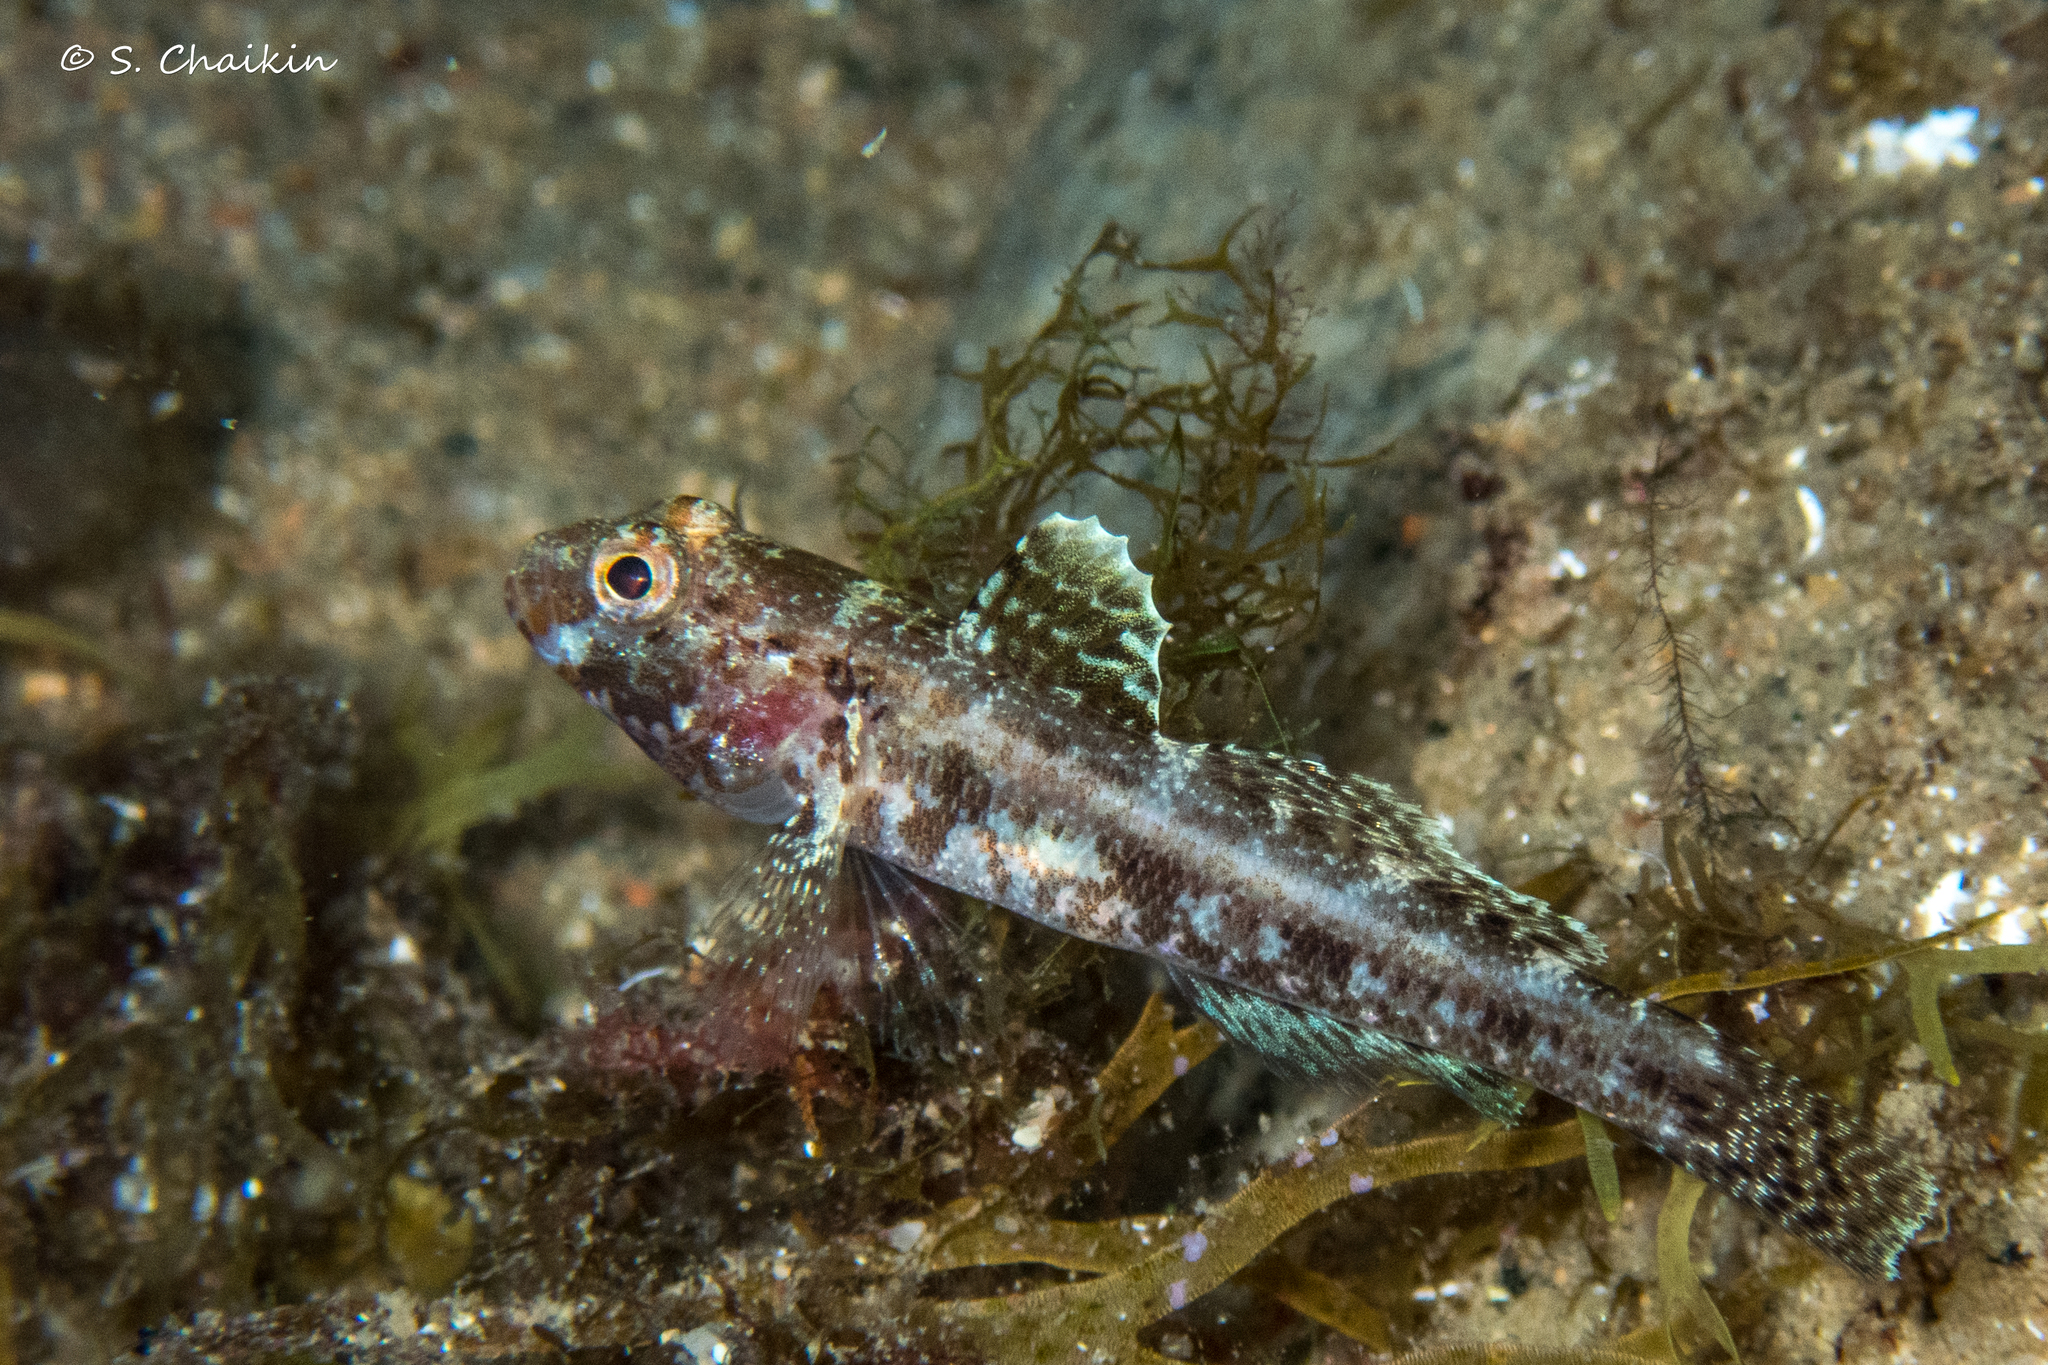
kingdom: Animalia
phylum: Chordata
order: Perciformes
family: Gobiidae
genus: Gobius
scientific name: Gobius cruentatus
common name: Red-mouthed goby
